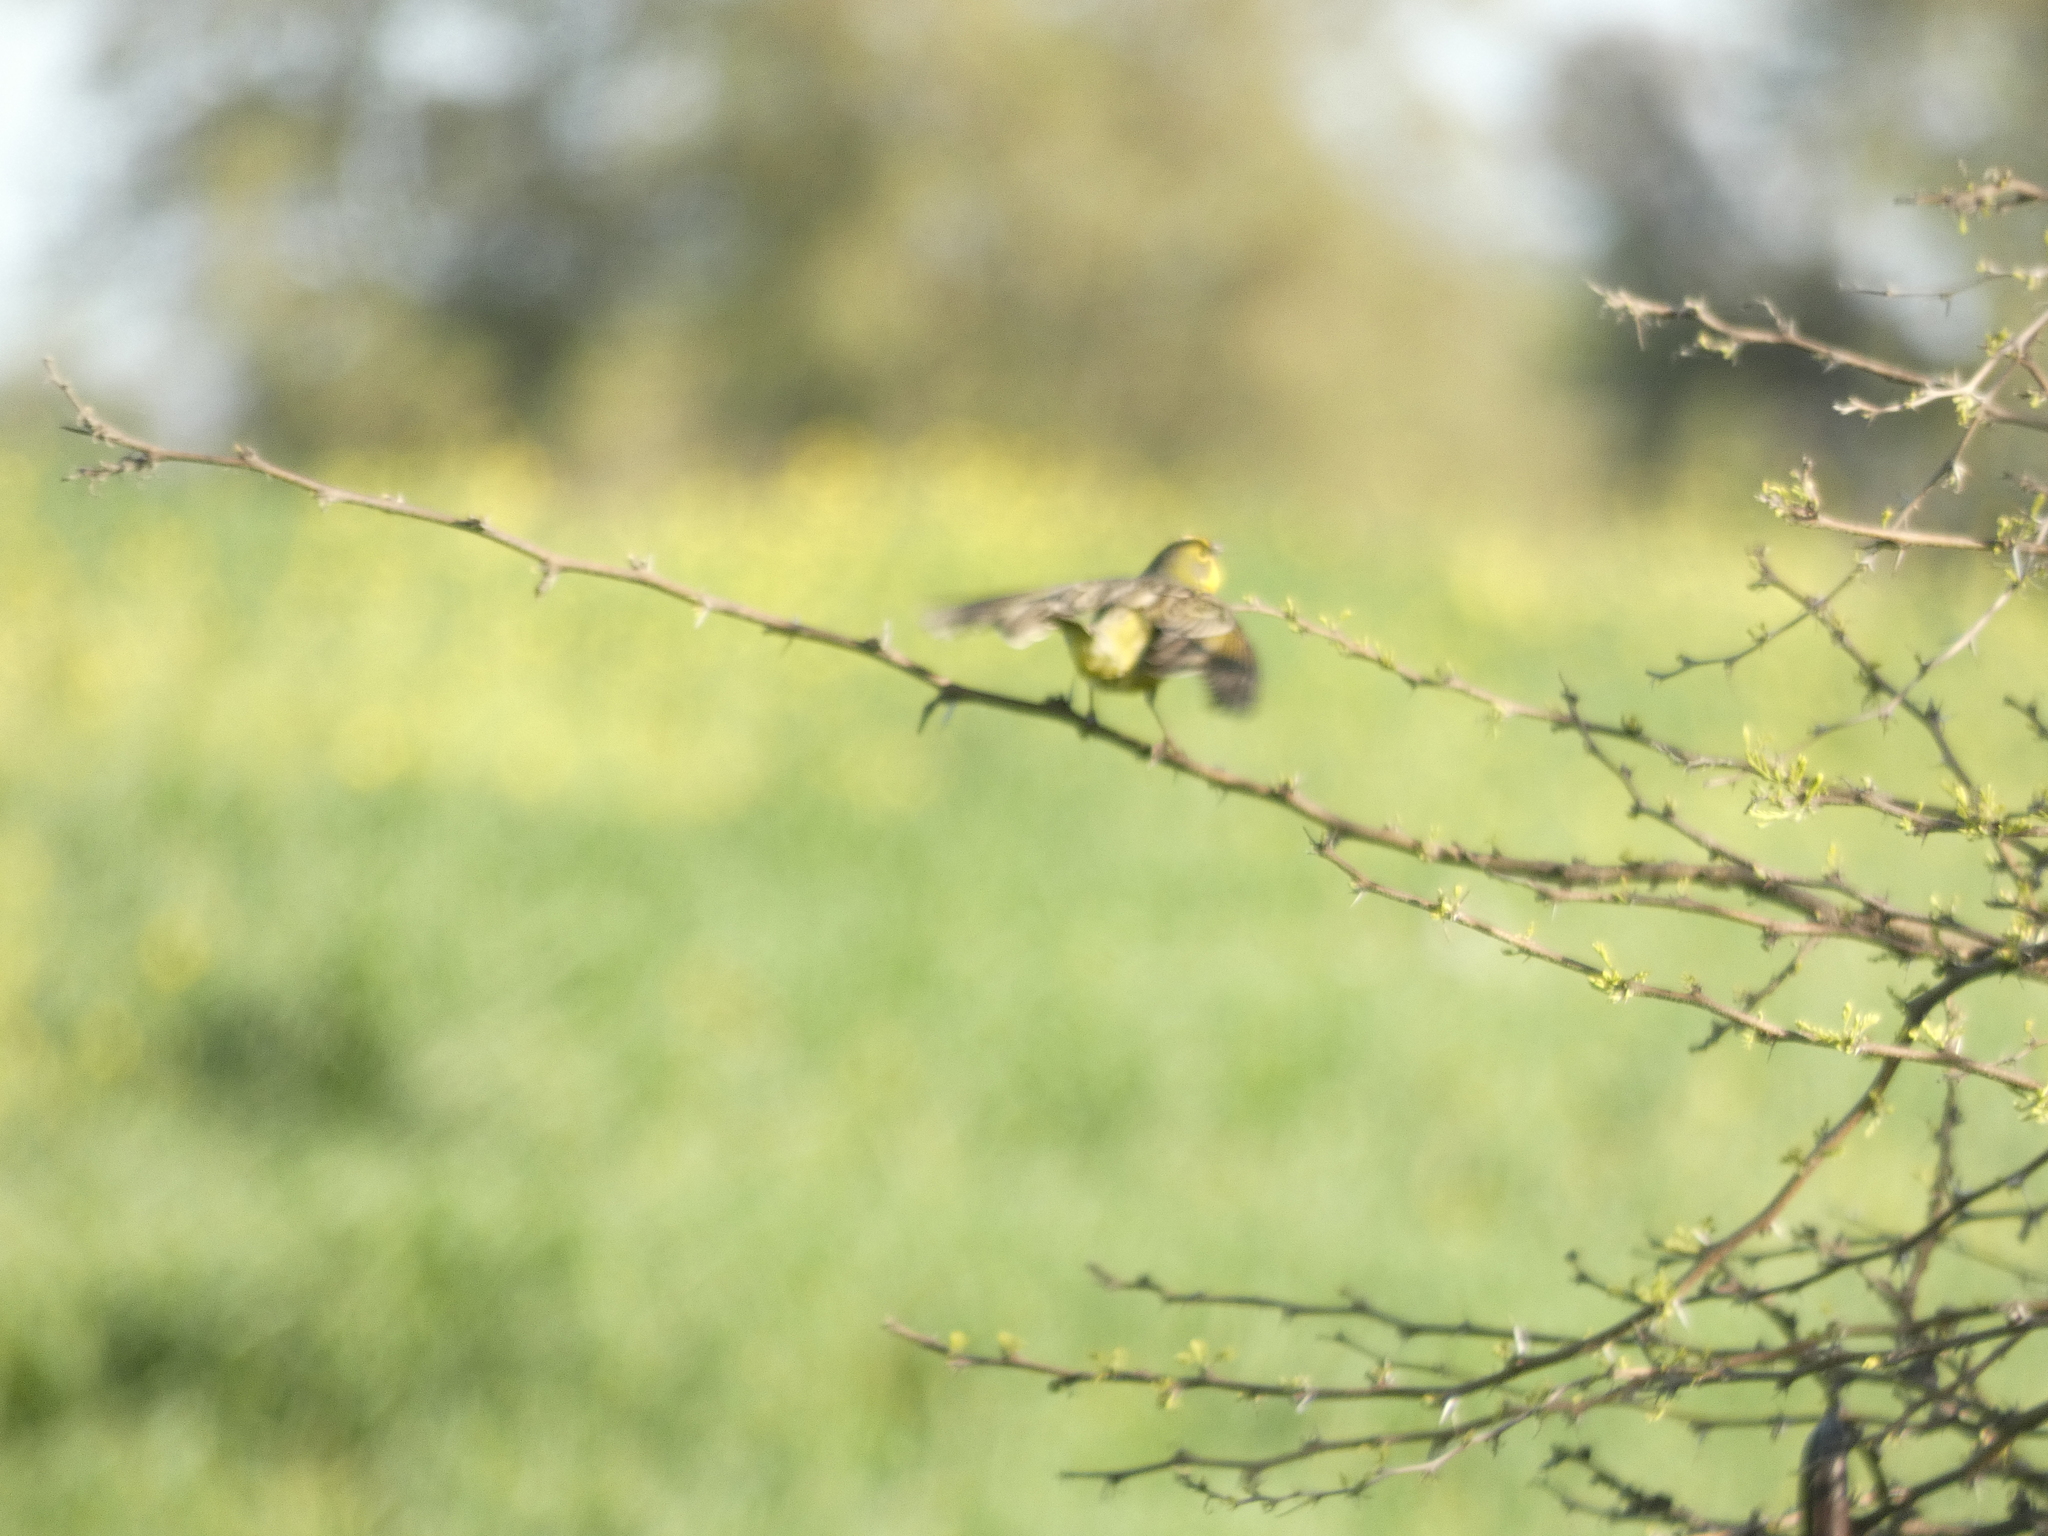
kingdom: Animalia
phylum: Chordata
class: Aves
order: Passeriformes
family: Thraupidae
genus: Sicalis
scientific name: Sicalis luteola
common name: Grassland yellow-finch
